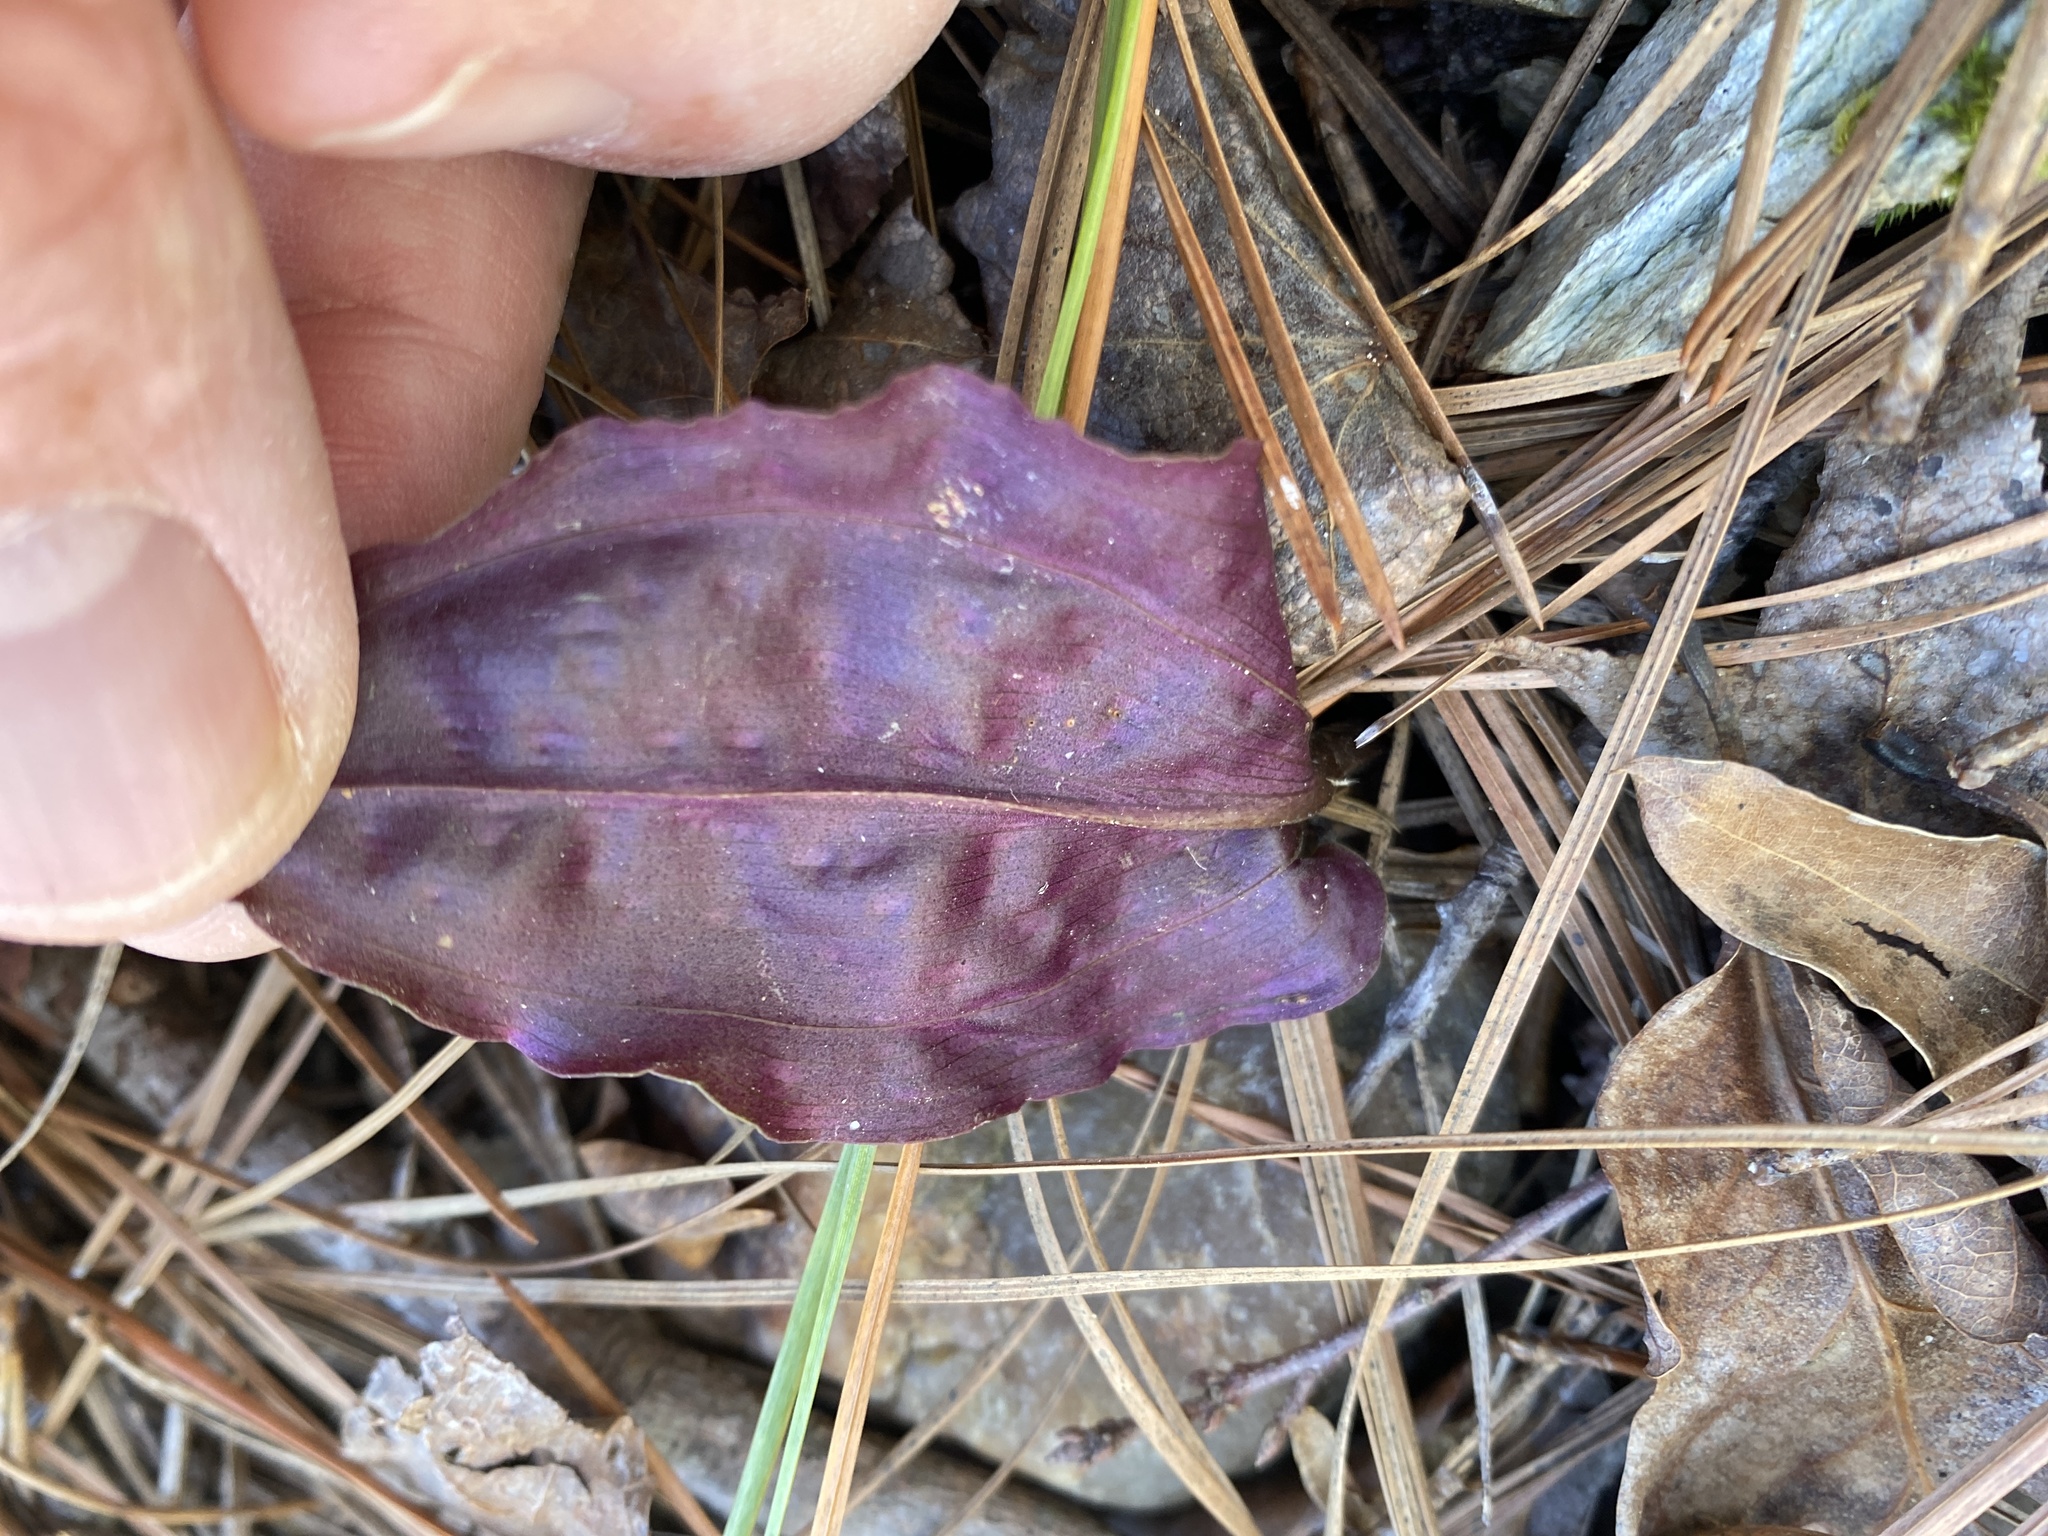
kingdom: Plantae
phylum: Tracheophyta
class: Liliopsida
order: Asparagales
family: Orchidaceae
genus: Tipularia
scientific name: Tipularia discolor
